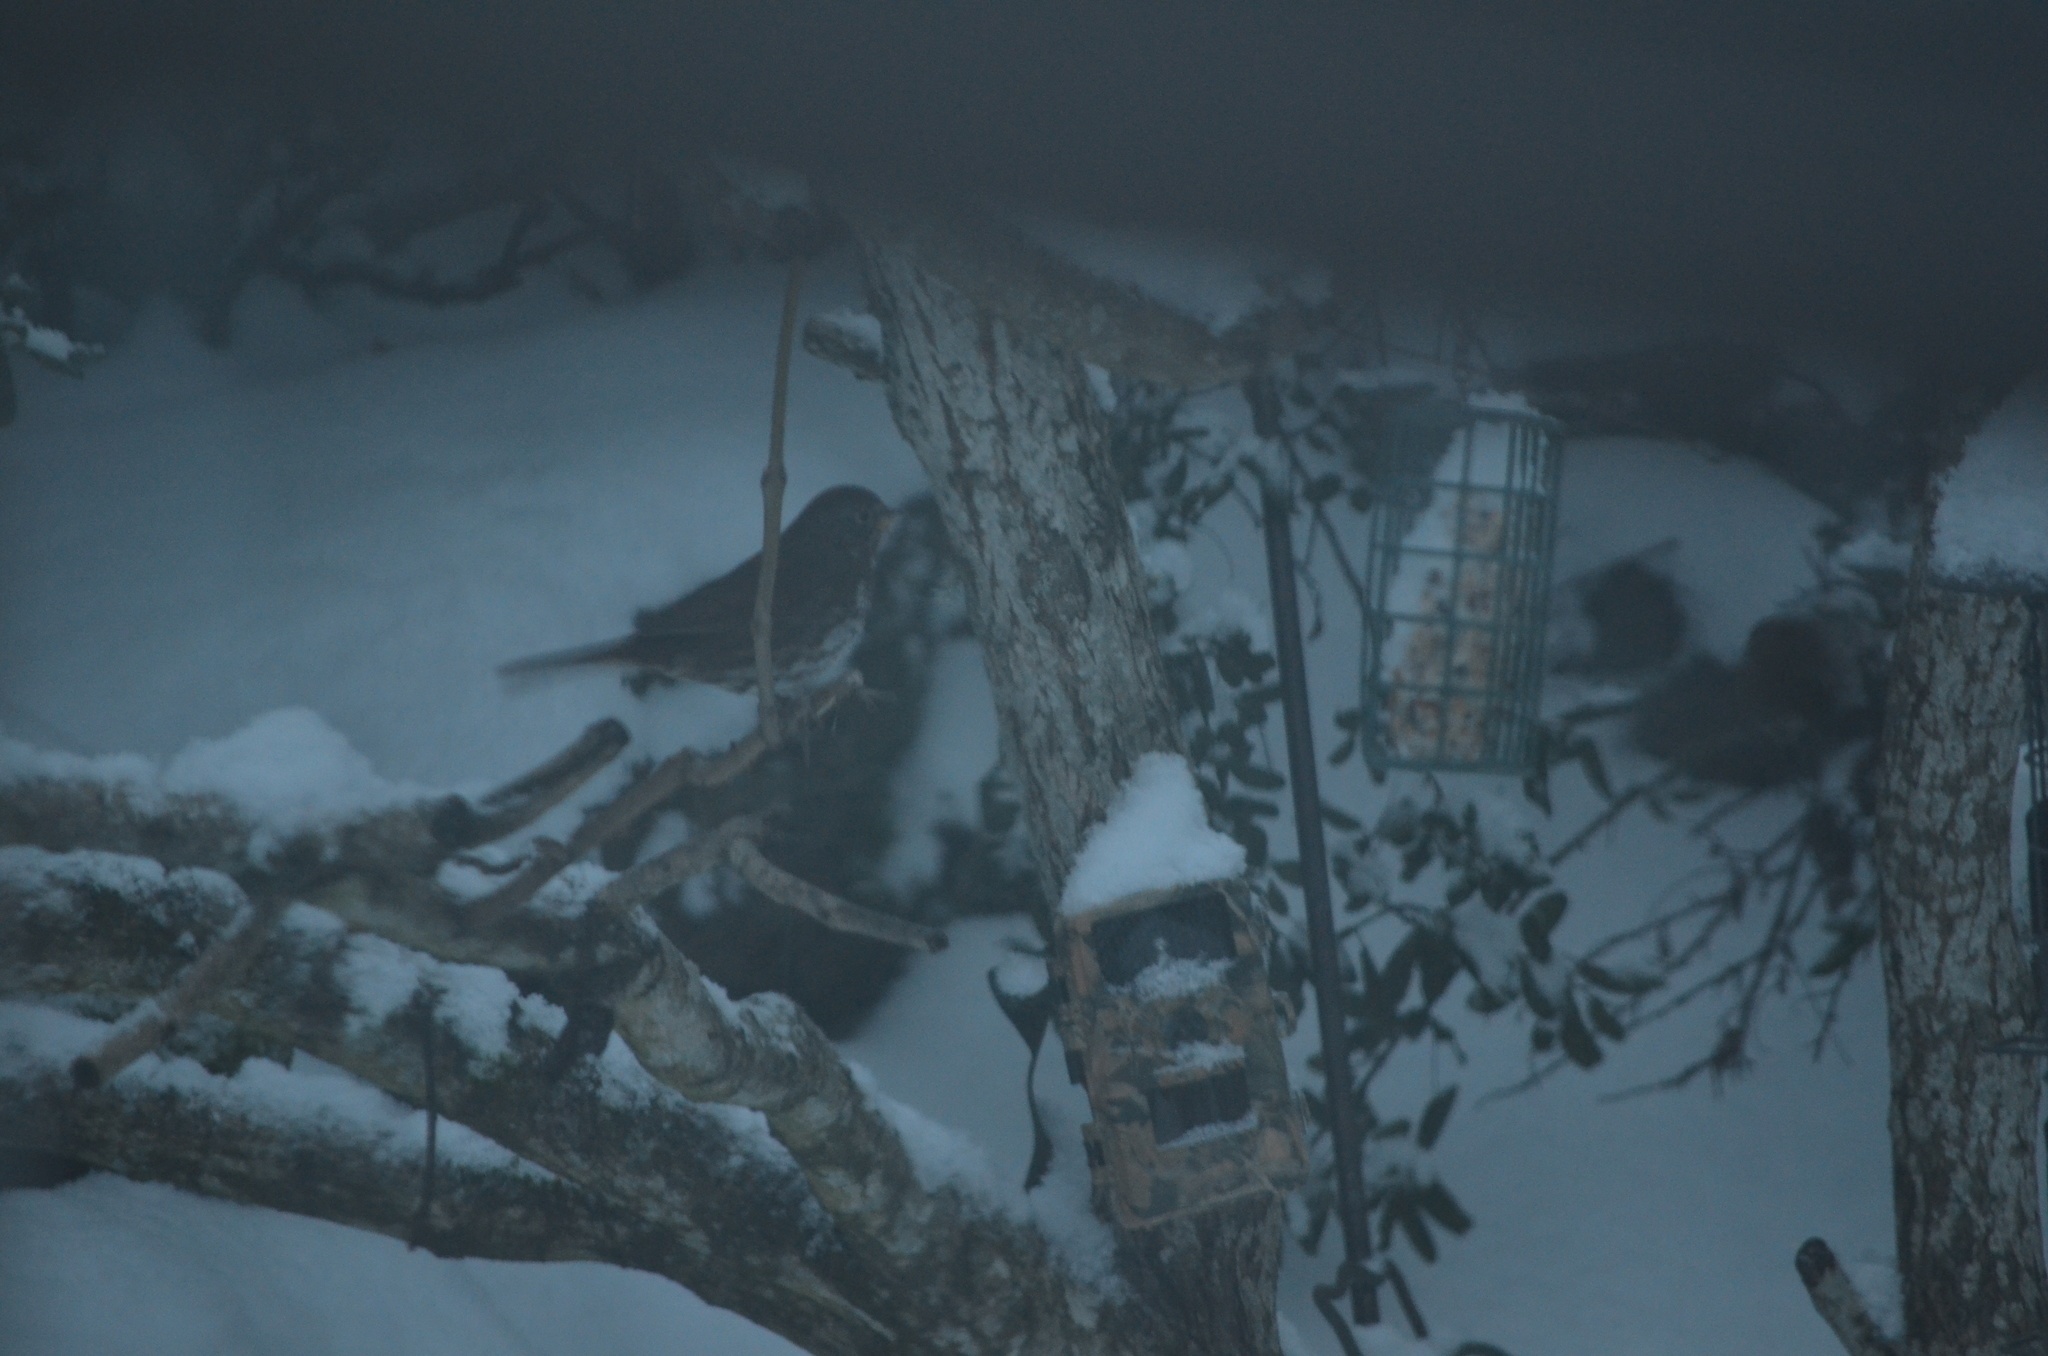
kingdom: Animalia
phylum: Chordata
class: Aves
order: Passeriformes
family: Passerellidae
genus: Passerella
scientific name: Passerella iliaca
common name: Fox sparrow
